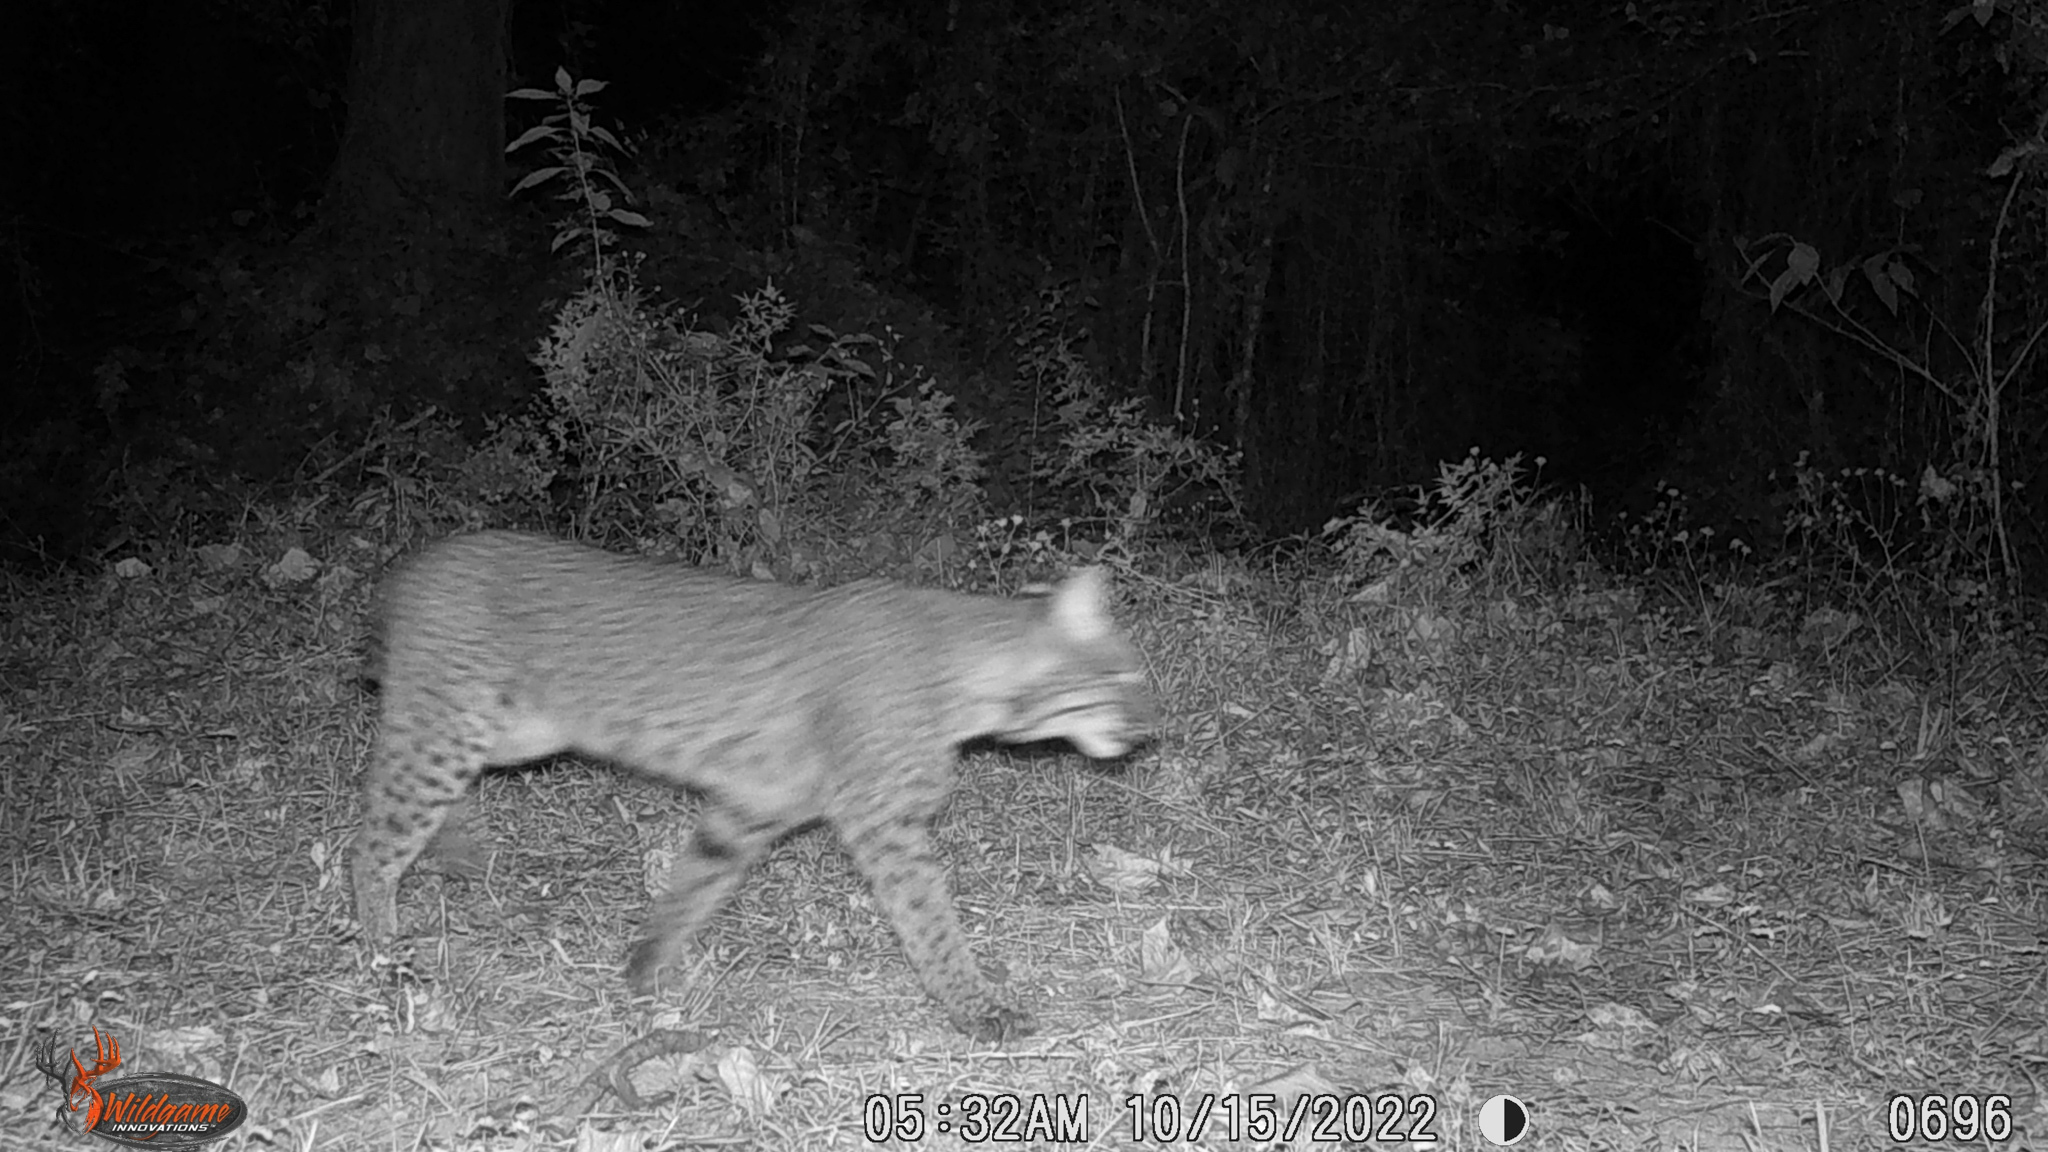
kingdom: Animalia
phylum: Chordata
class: Mammalia
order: Carnivora
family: Felidae
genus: Lynx
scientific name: Lynx rufus
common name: Bobcat
